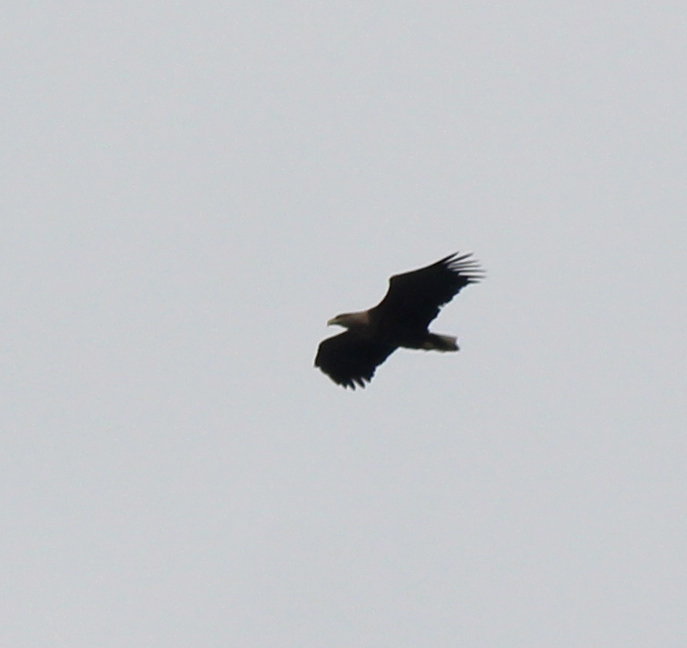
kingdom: Animalia
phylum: Chordata
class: Aves
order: Accipitriformes
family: Accipitridae
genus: Haliaeetus
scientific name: Haliaeetus albicilla
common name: White-tailed eagle
